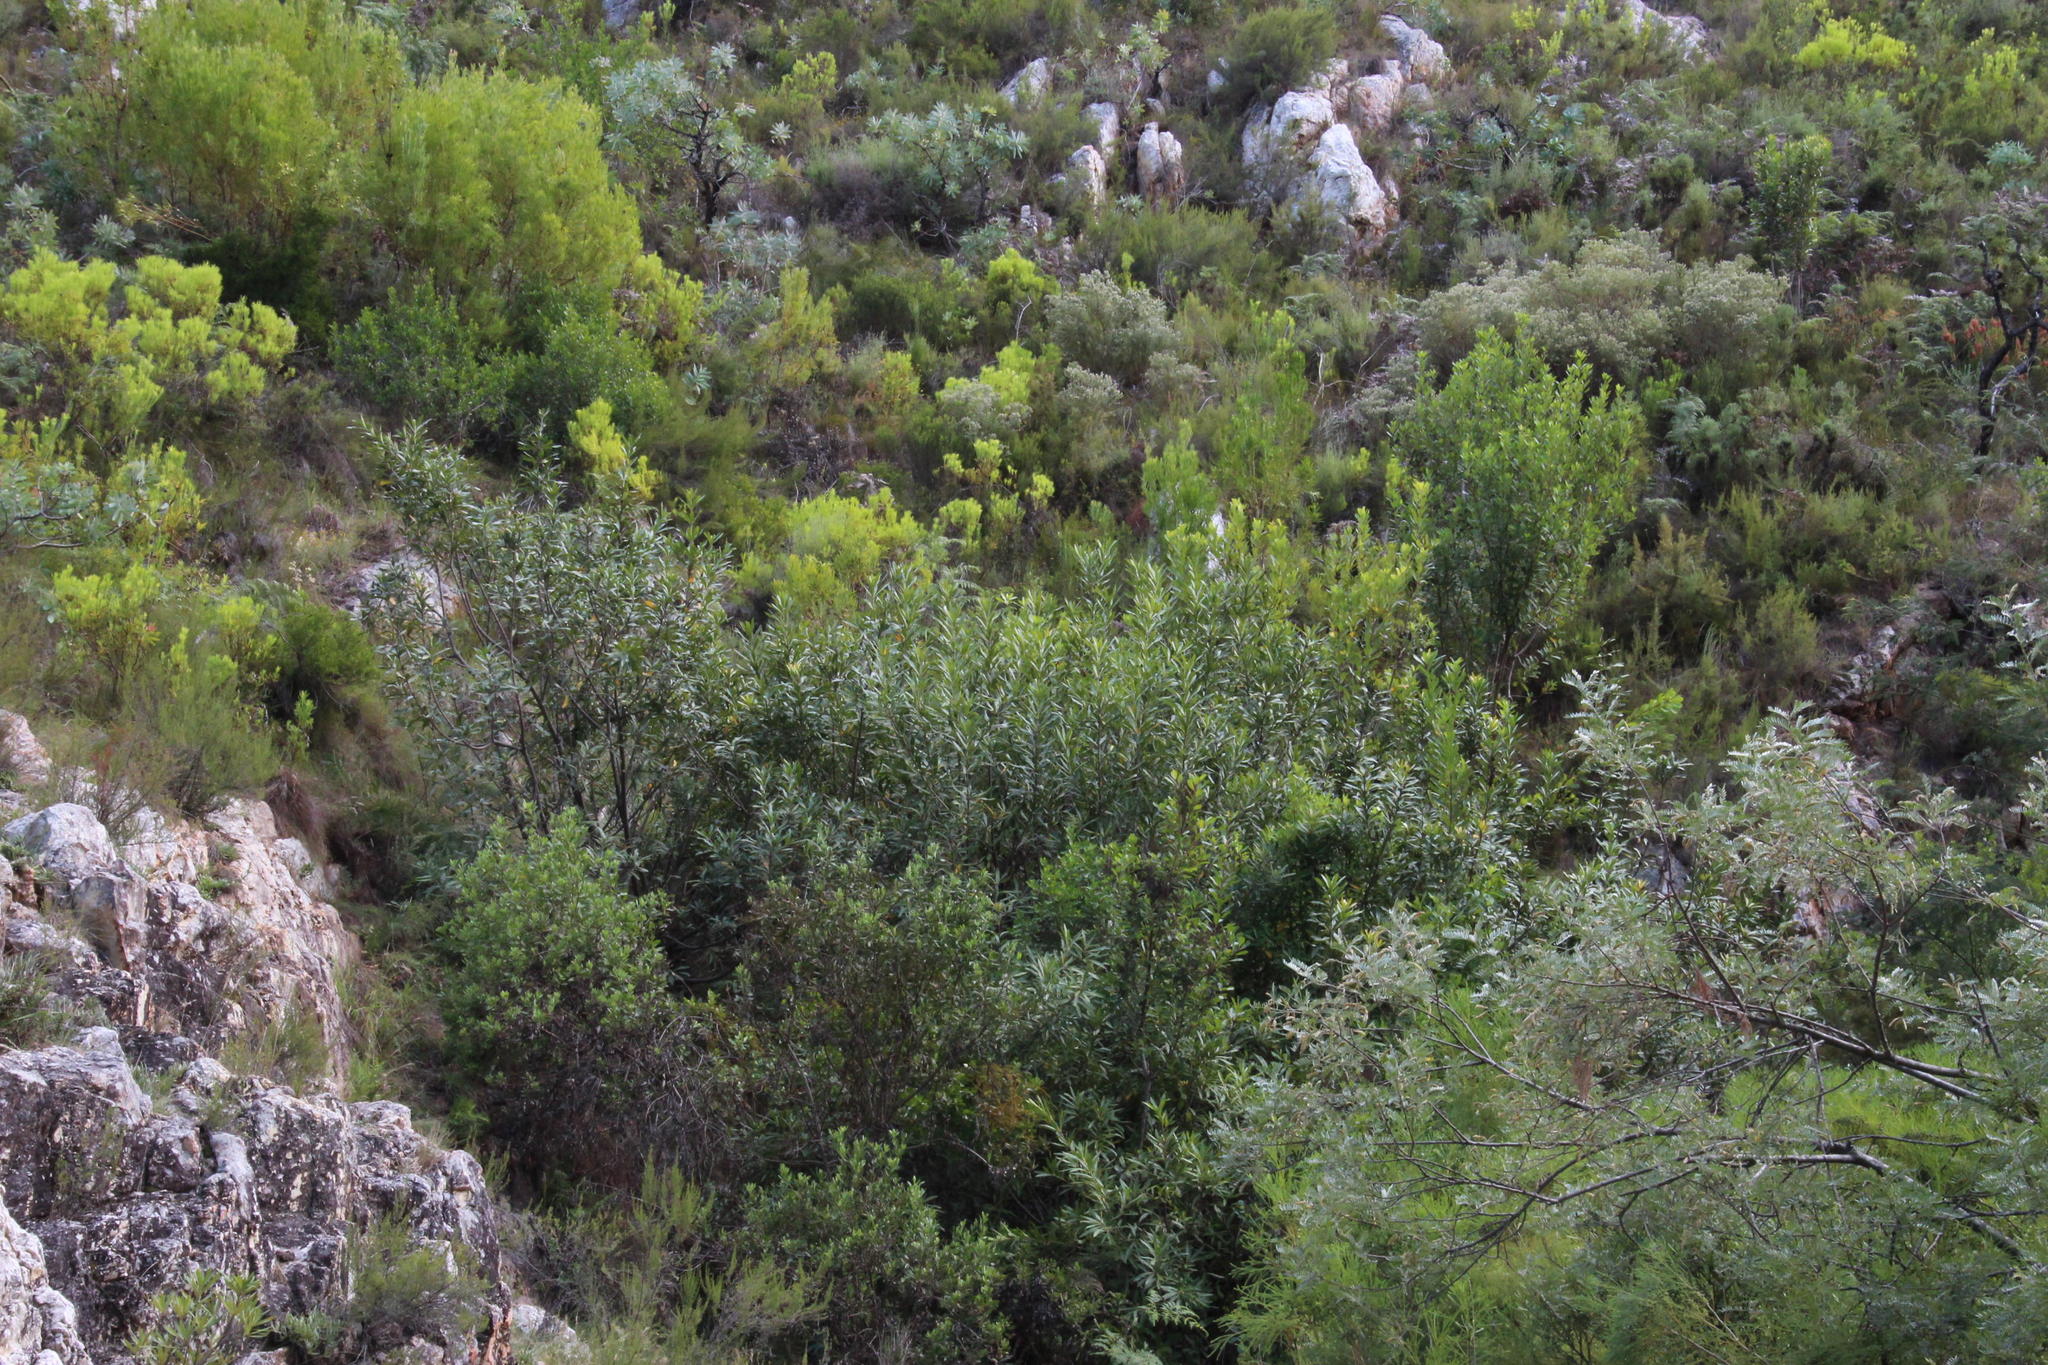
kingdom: Plantae
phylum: Tracheophyta
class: Magnoliopsida
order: Proteales
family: Proteaceae
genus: Brabejum
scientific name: Brabejum stellatifolium
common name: Wild almond
